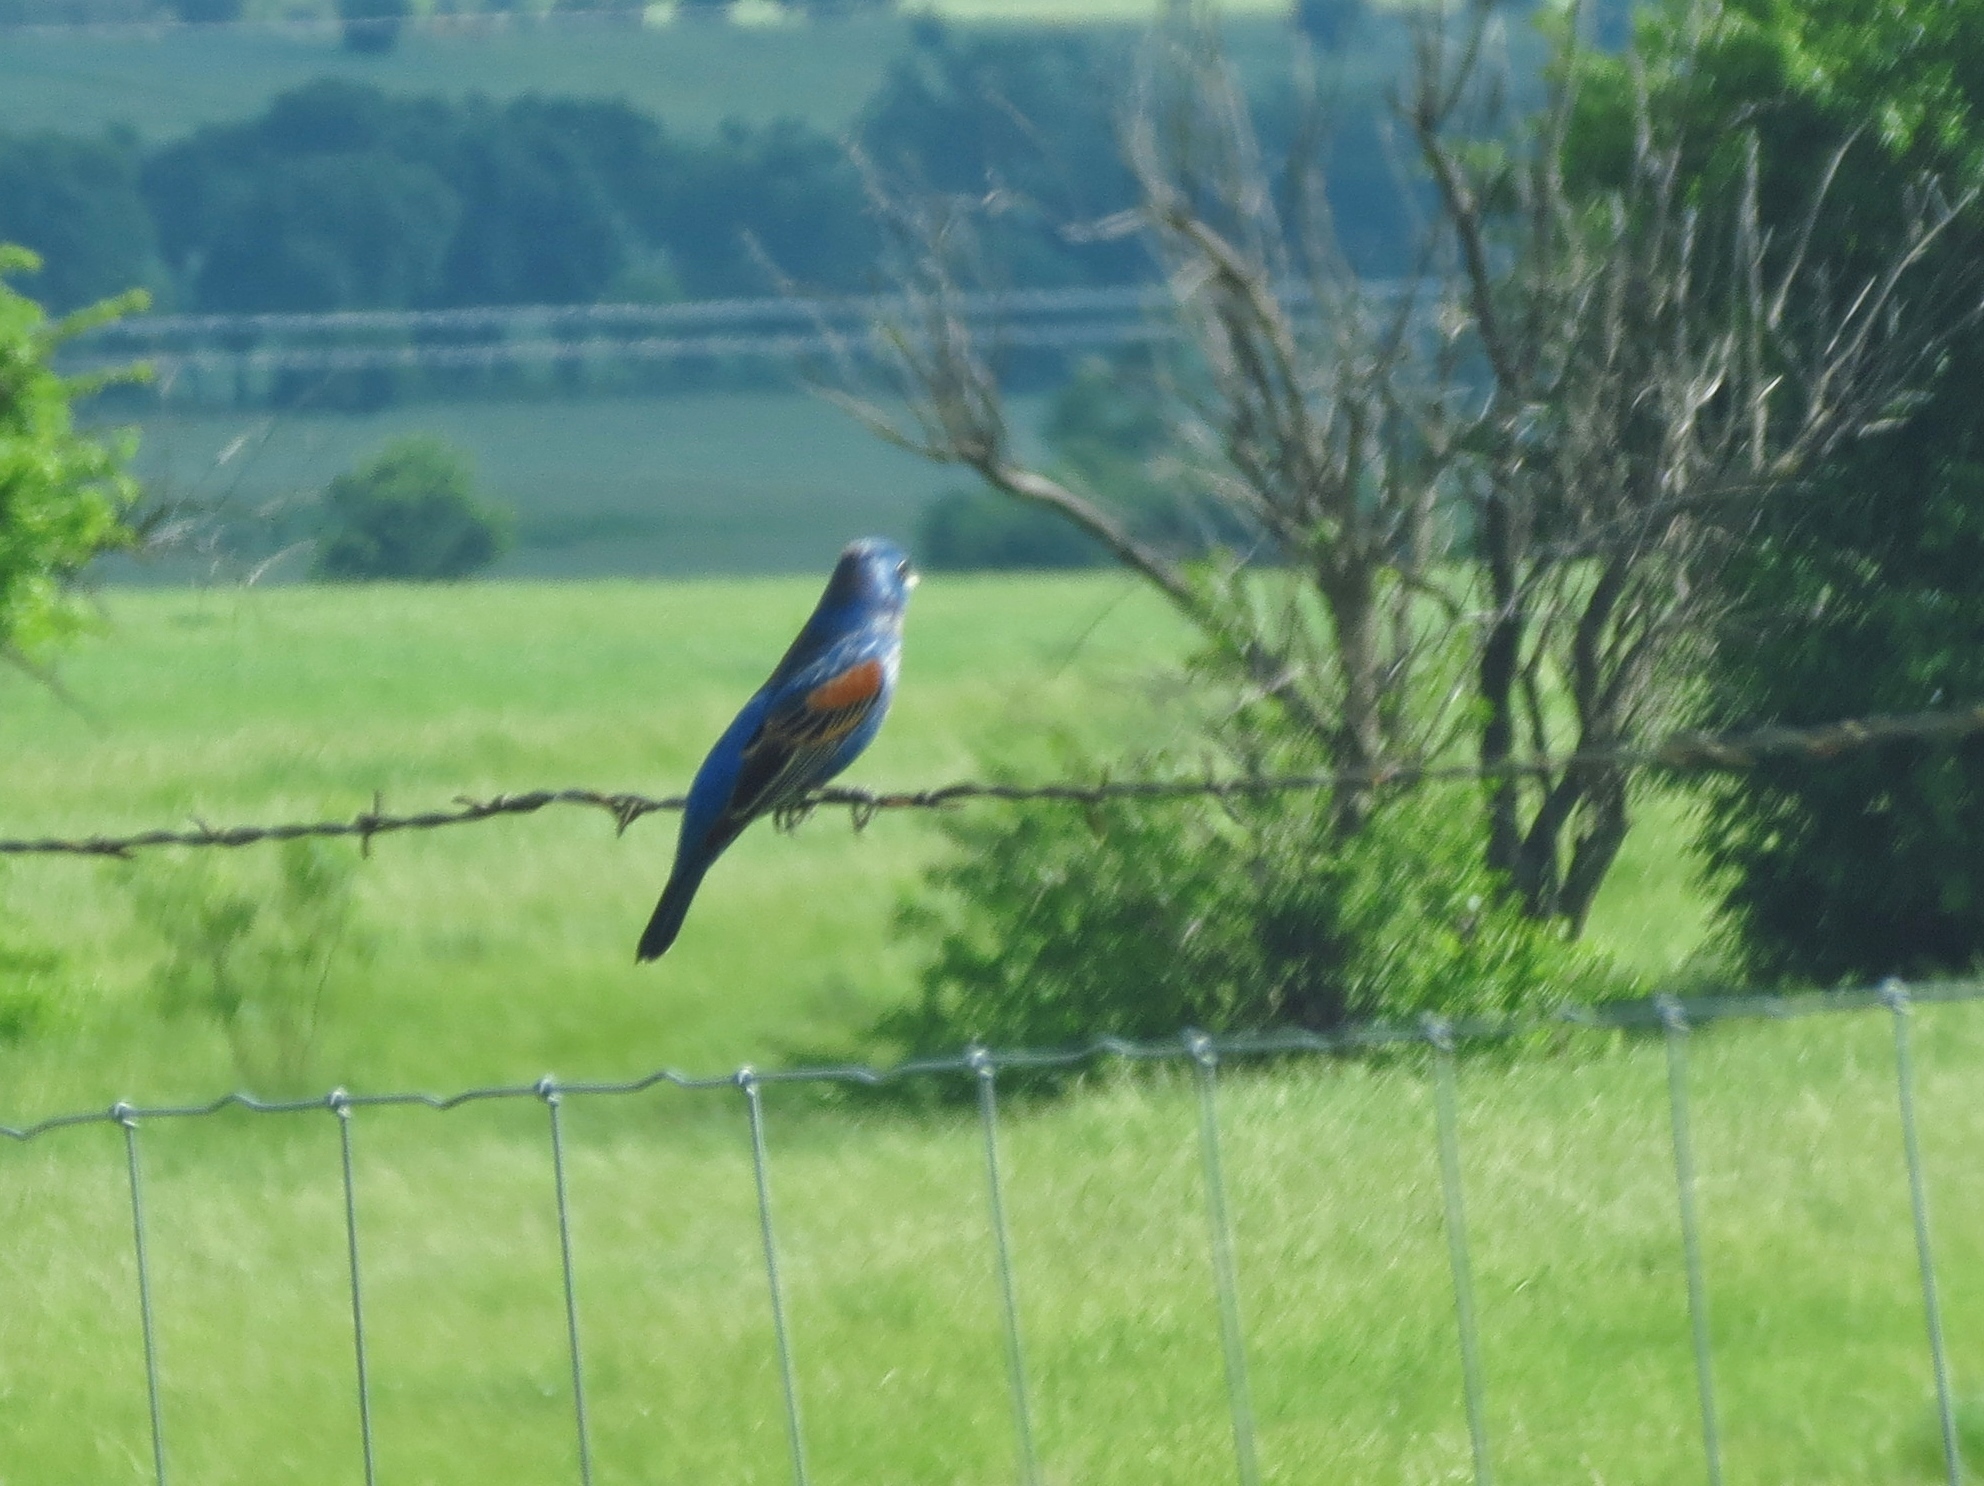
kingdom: Animalia
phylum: Chordata
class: Aves
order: Passeriformes
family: Cardinalidae
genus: Passerina
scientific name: Passerina caerulea
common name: Blue grosbeak
